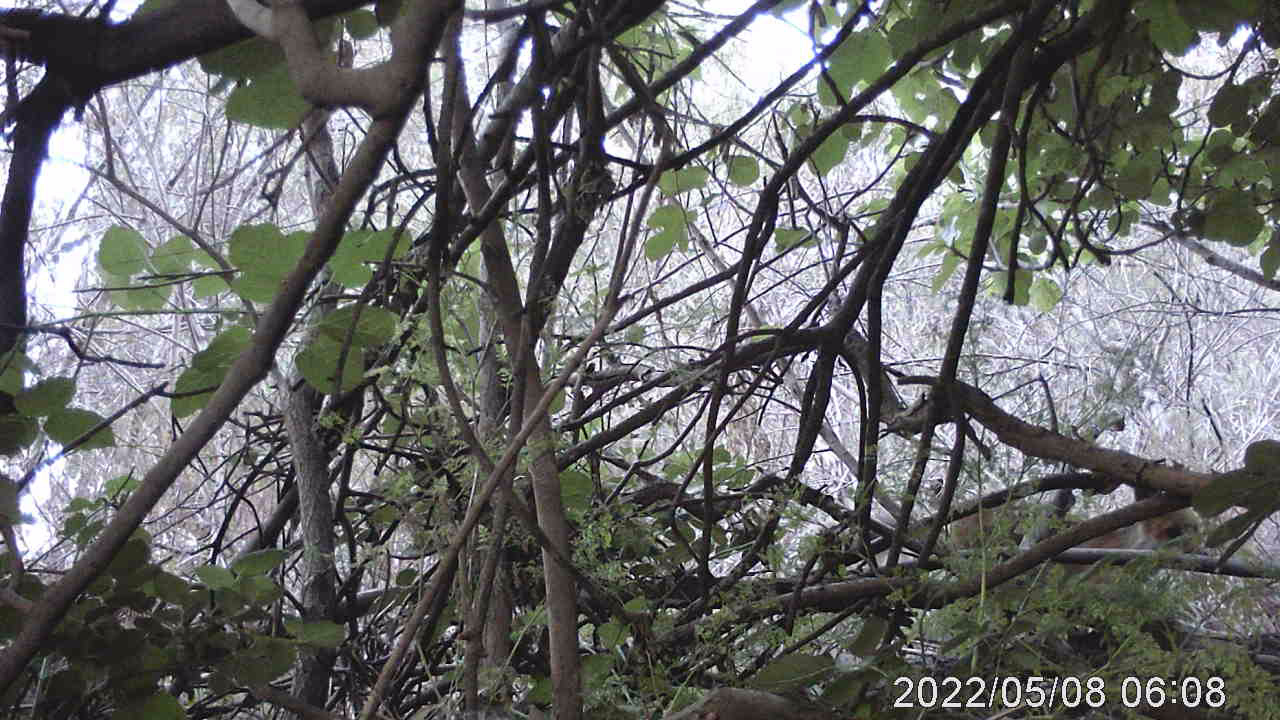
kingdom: Animalia
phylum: Chordata
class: Mammalia
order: Carnivora
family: Canidae
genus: Vulpes
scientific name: Vulpes vulpes
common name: Red fox
